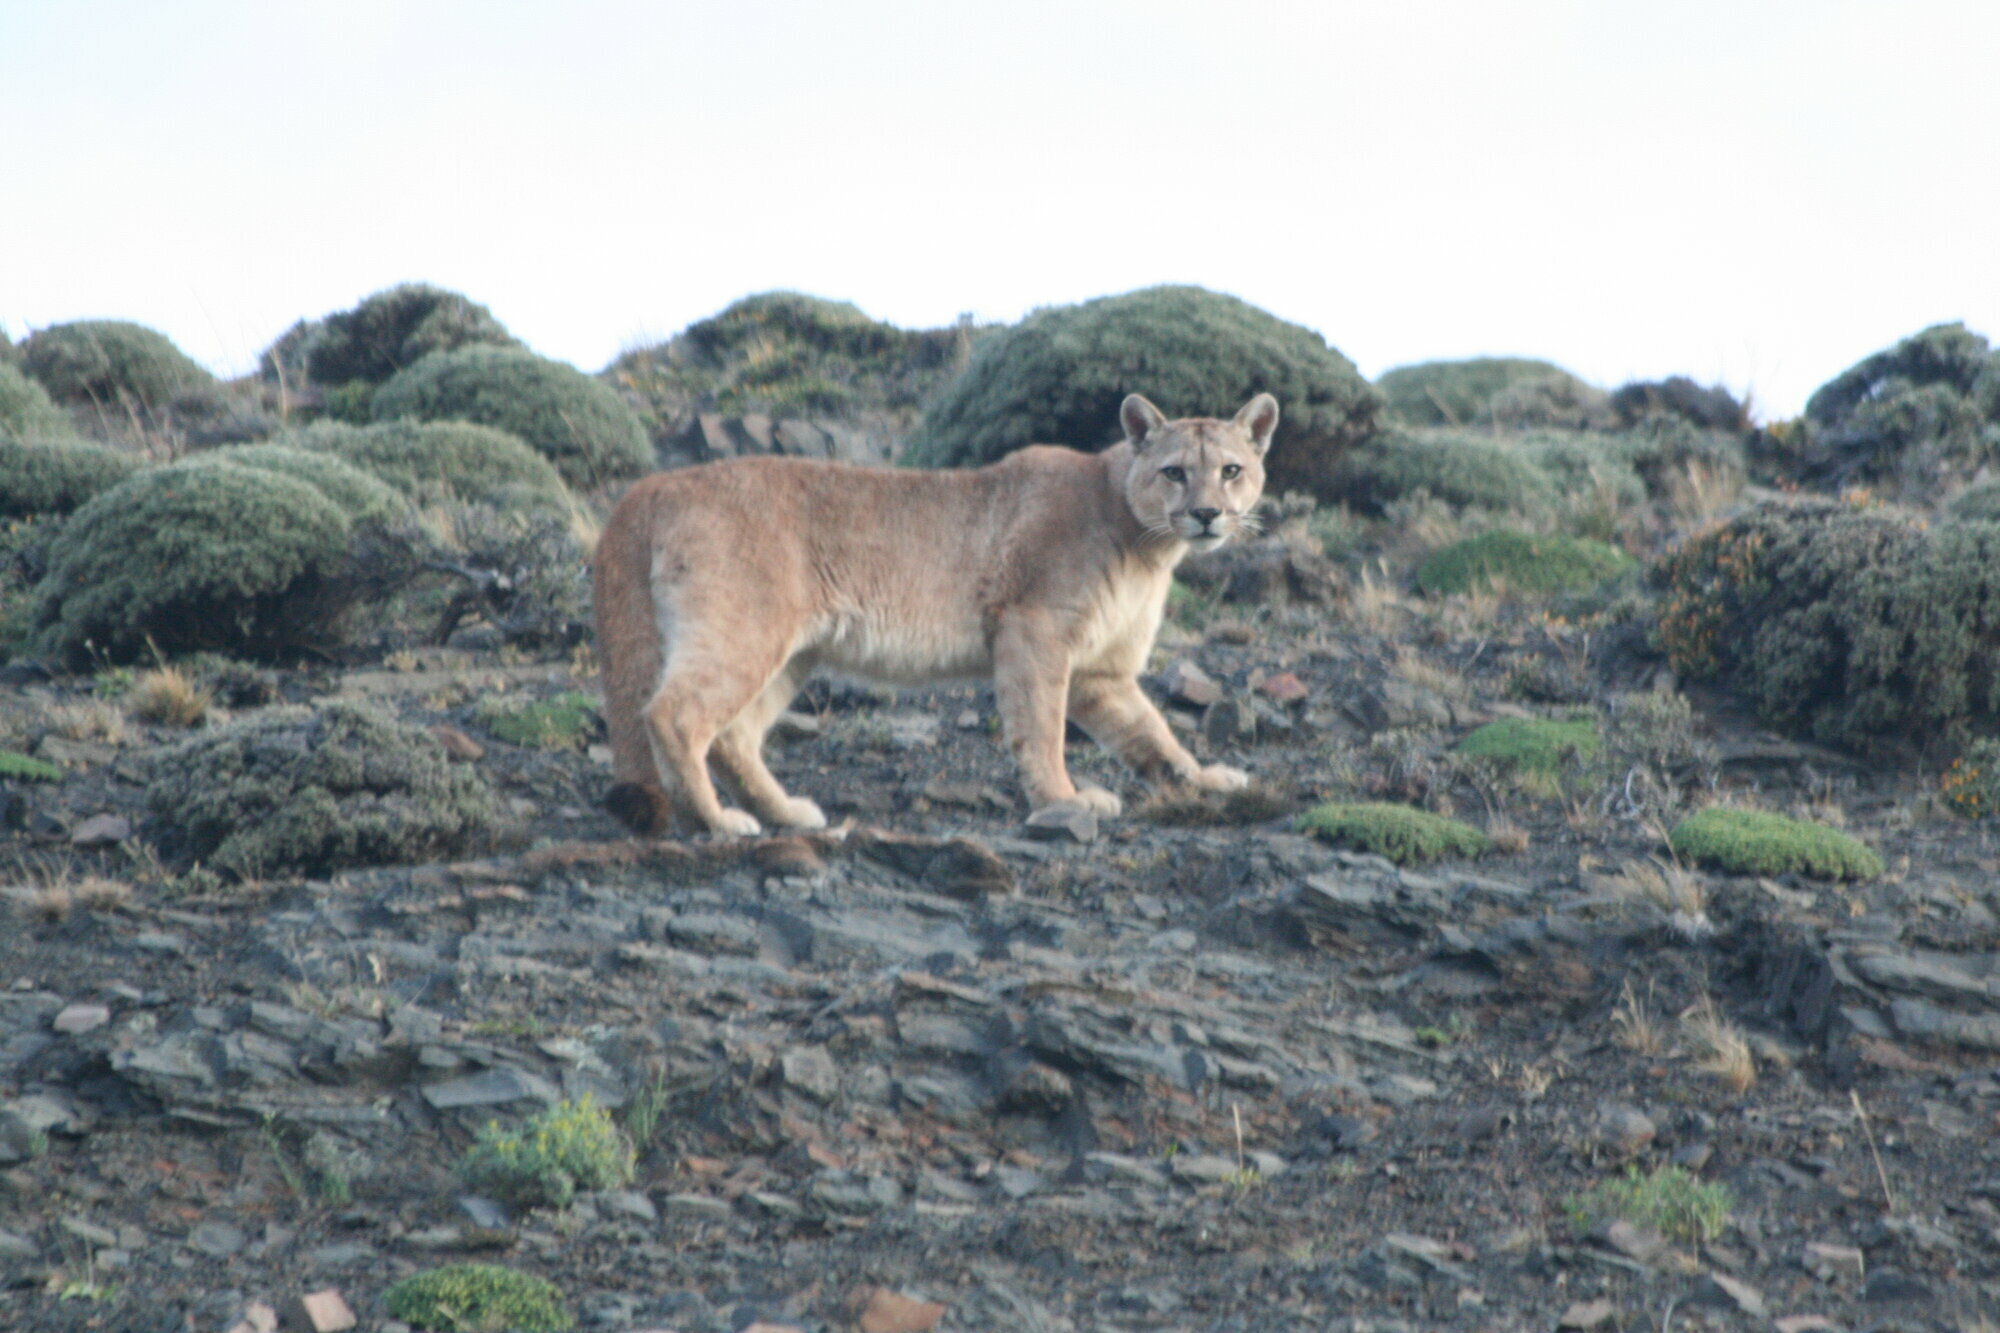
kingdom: Animalia
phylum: Chordata
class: Mammalia
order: Carnivora
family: Felidae
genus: Puma
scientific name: Puma concolor
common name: Puma
